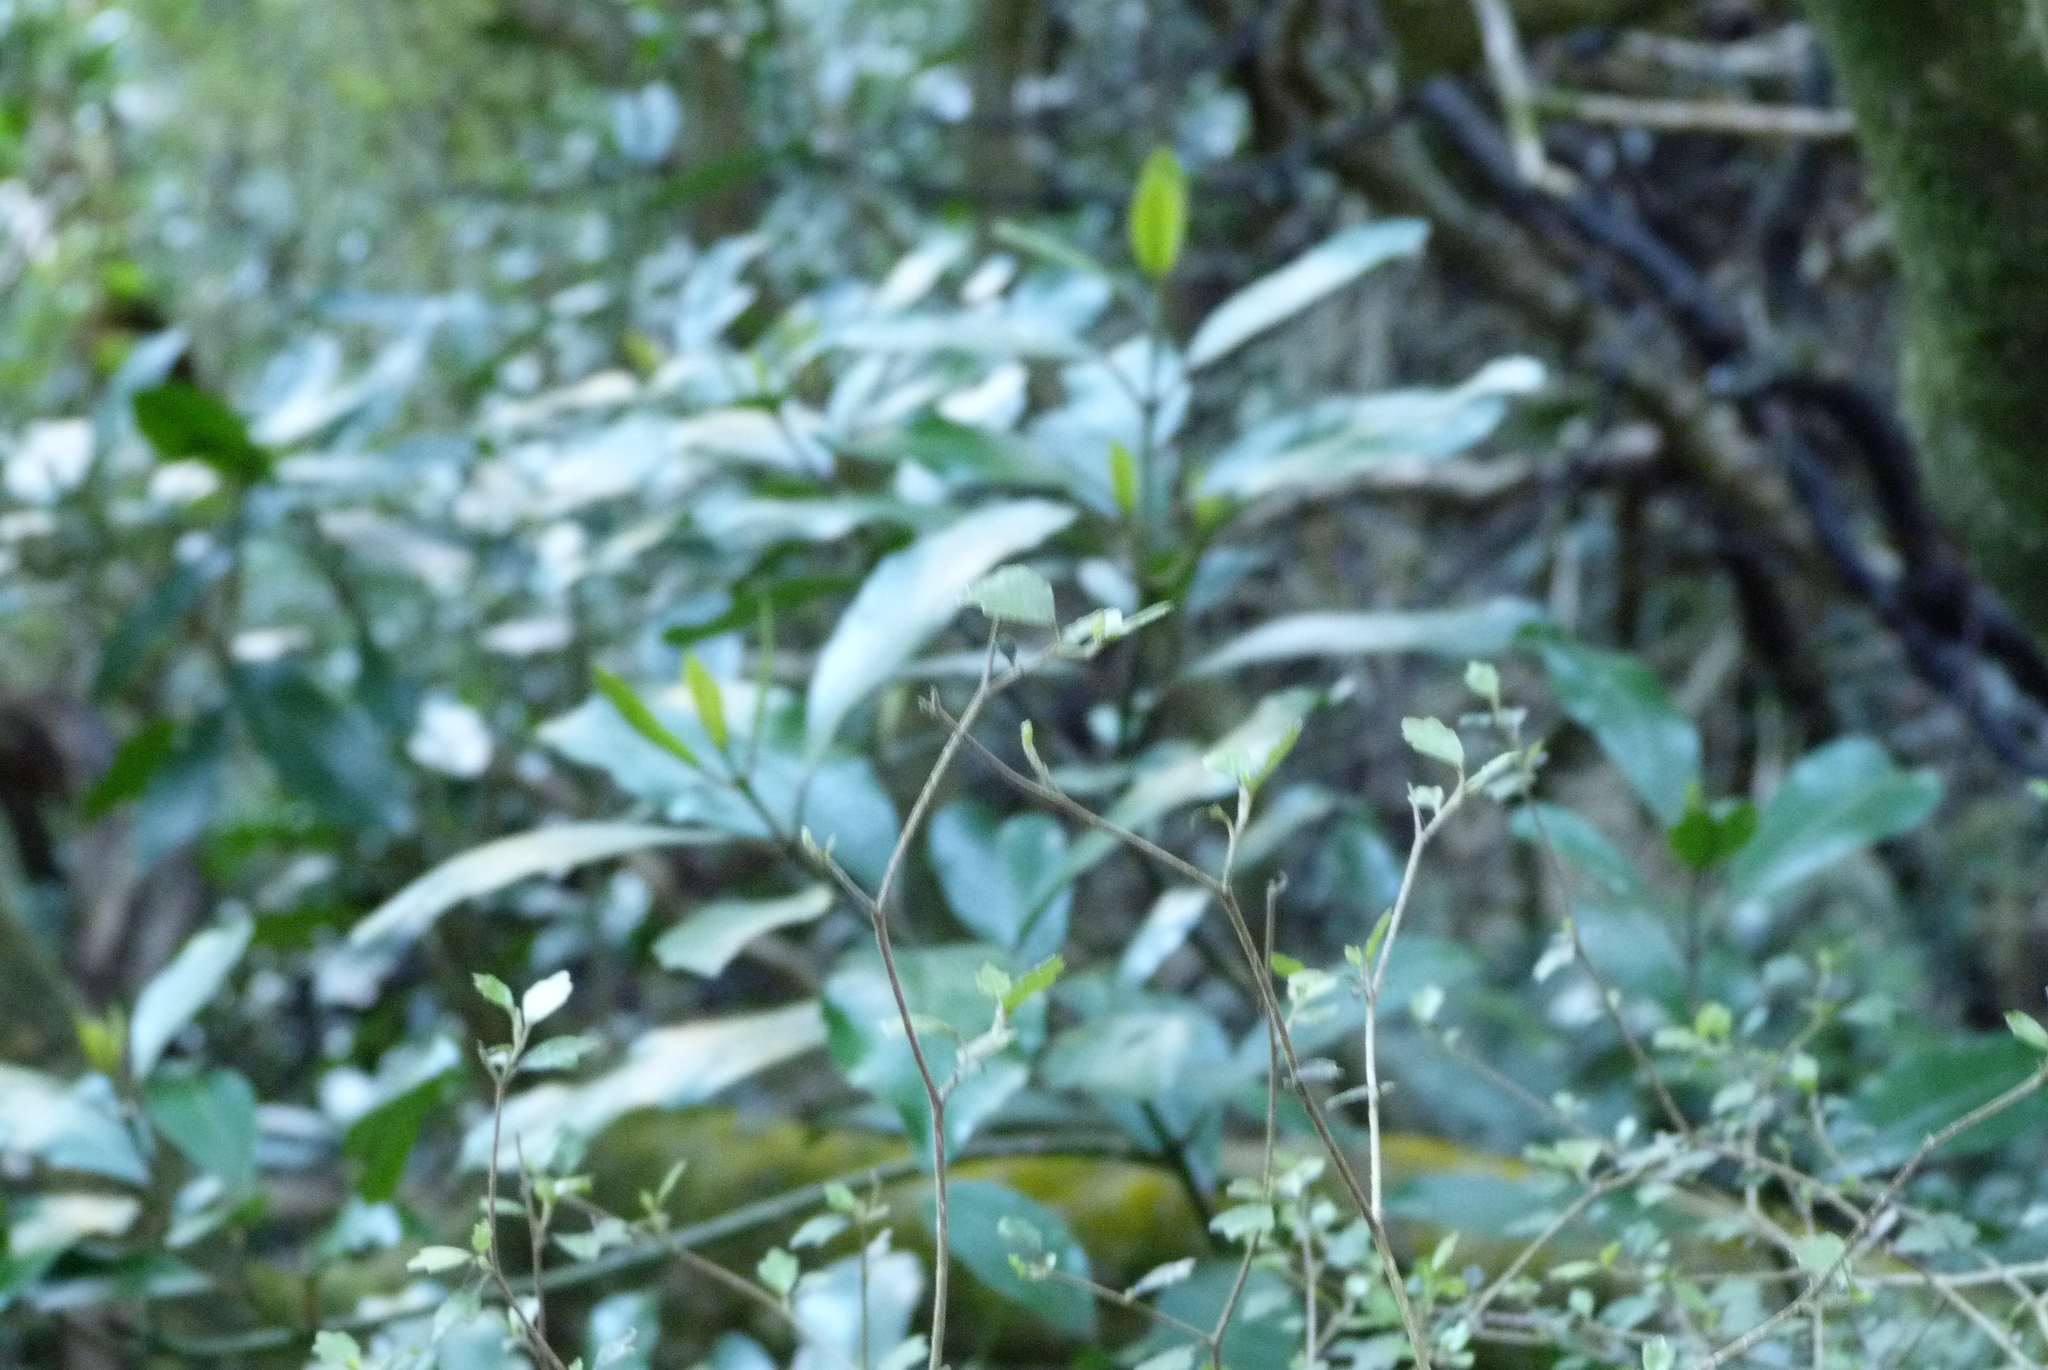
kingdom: Plantae
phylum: Tracheophyta
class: Magnoliopsida
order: Laurales
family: Monimiaceae
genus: Hedycarya
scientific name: Hedycarya arborea
